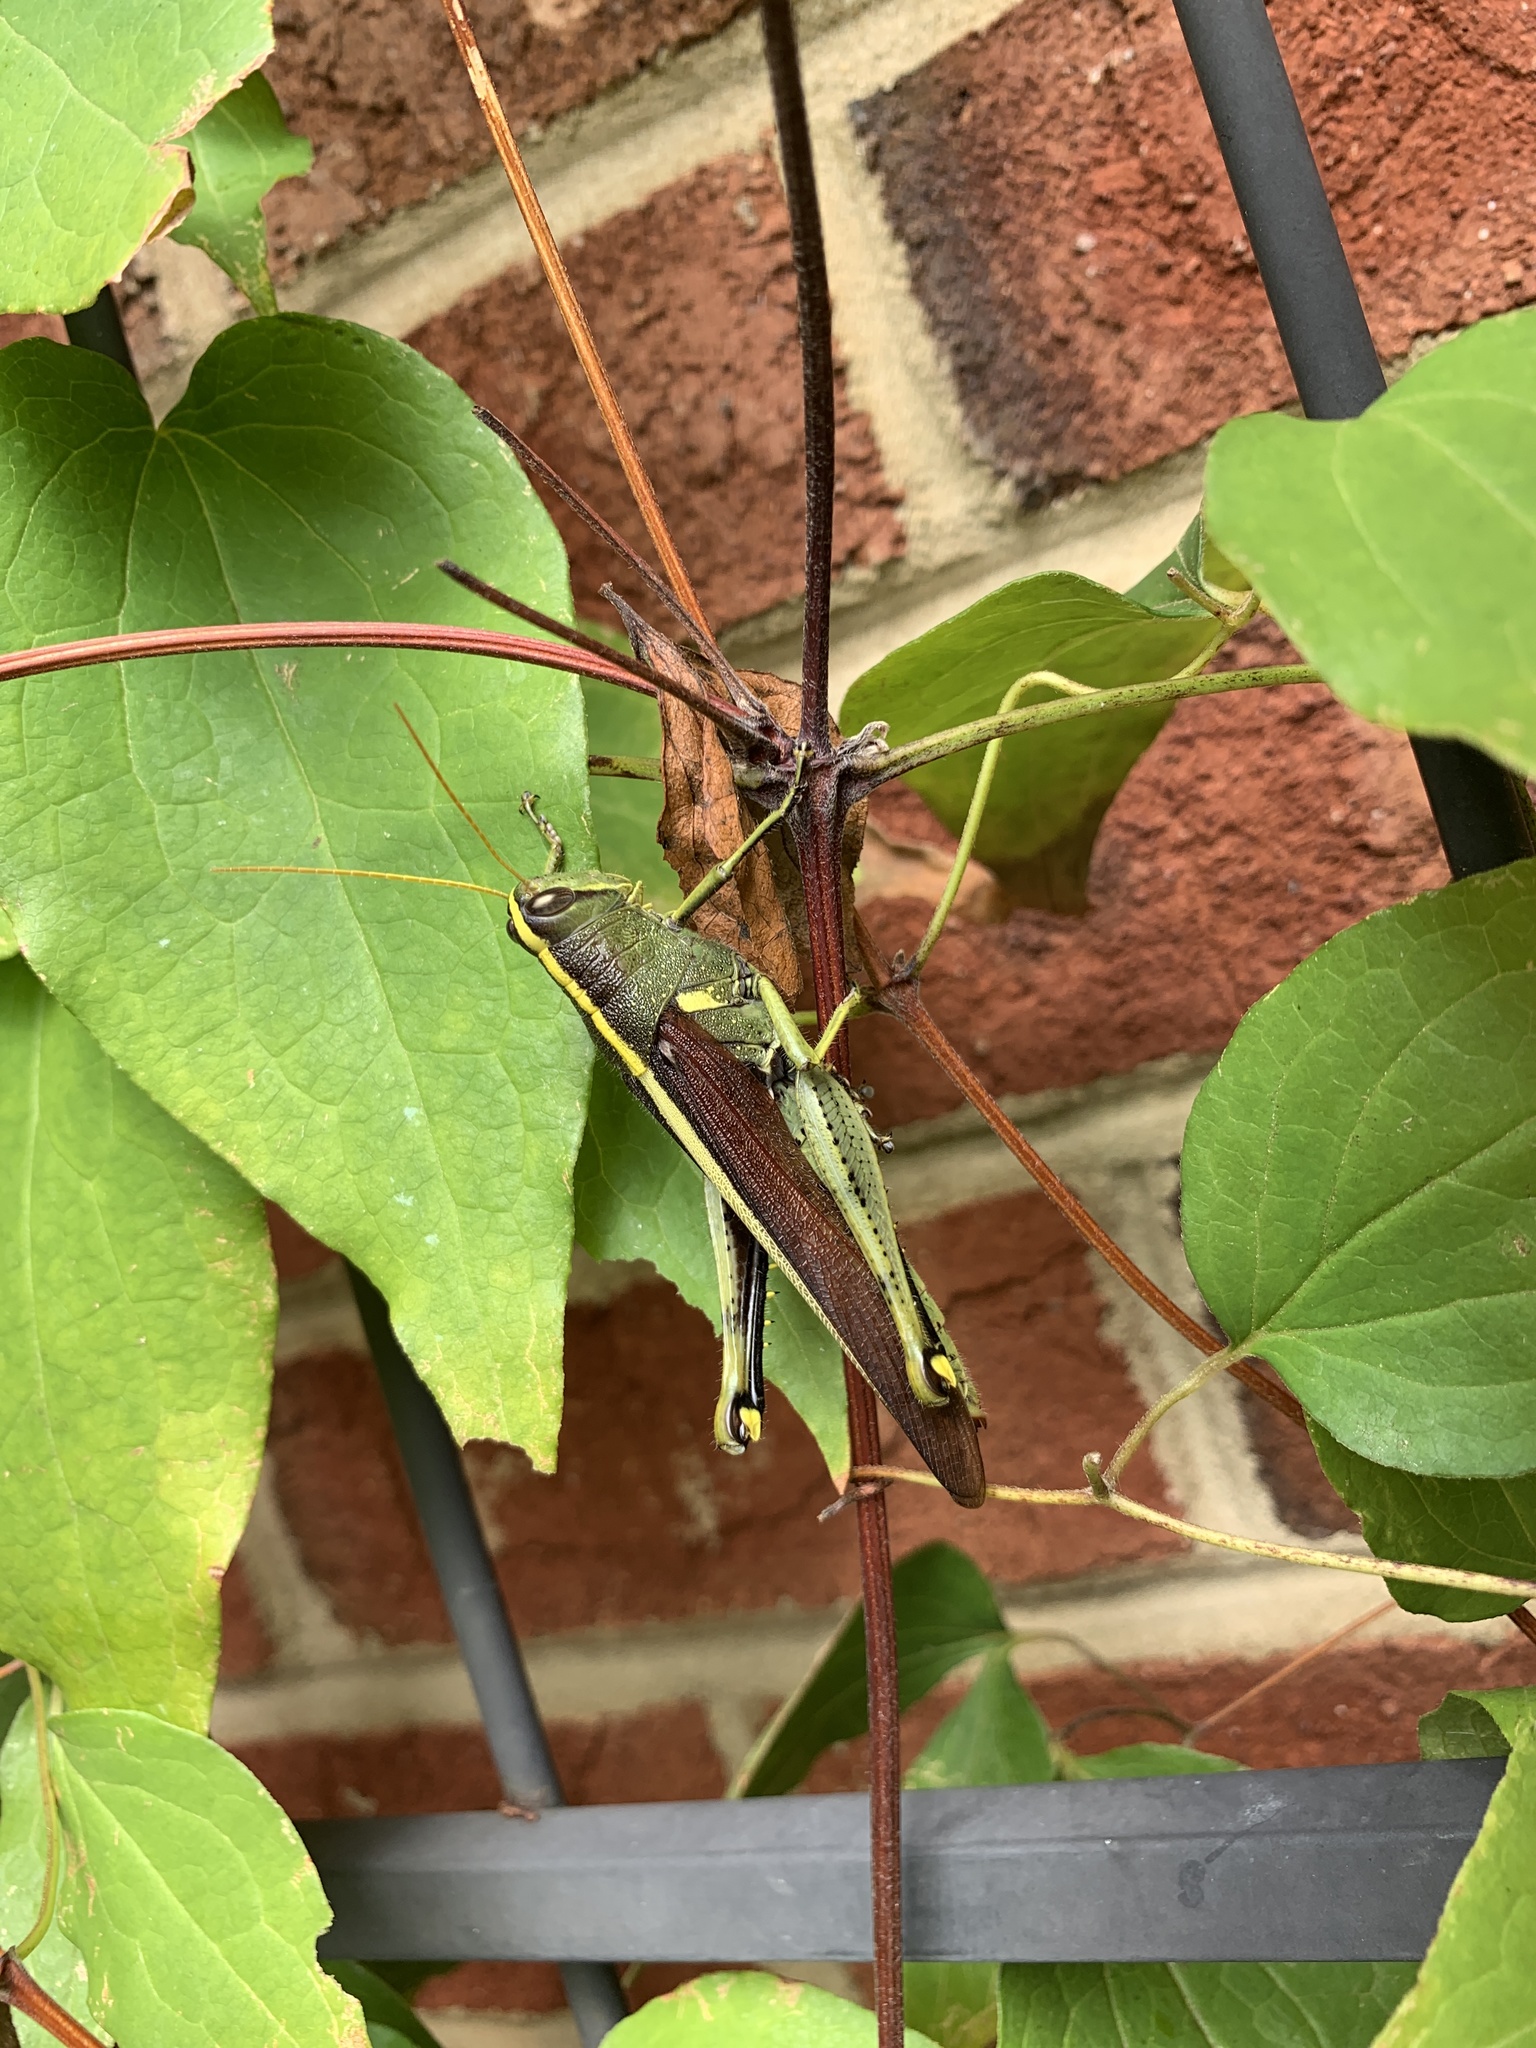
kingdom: Animalia
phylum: Arthropoda
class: Insecta
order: Orthoptera
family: Acrididae
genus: Schistocerca
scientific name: Schistocerca obscura
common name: Obscure bird grasshopper
